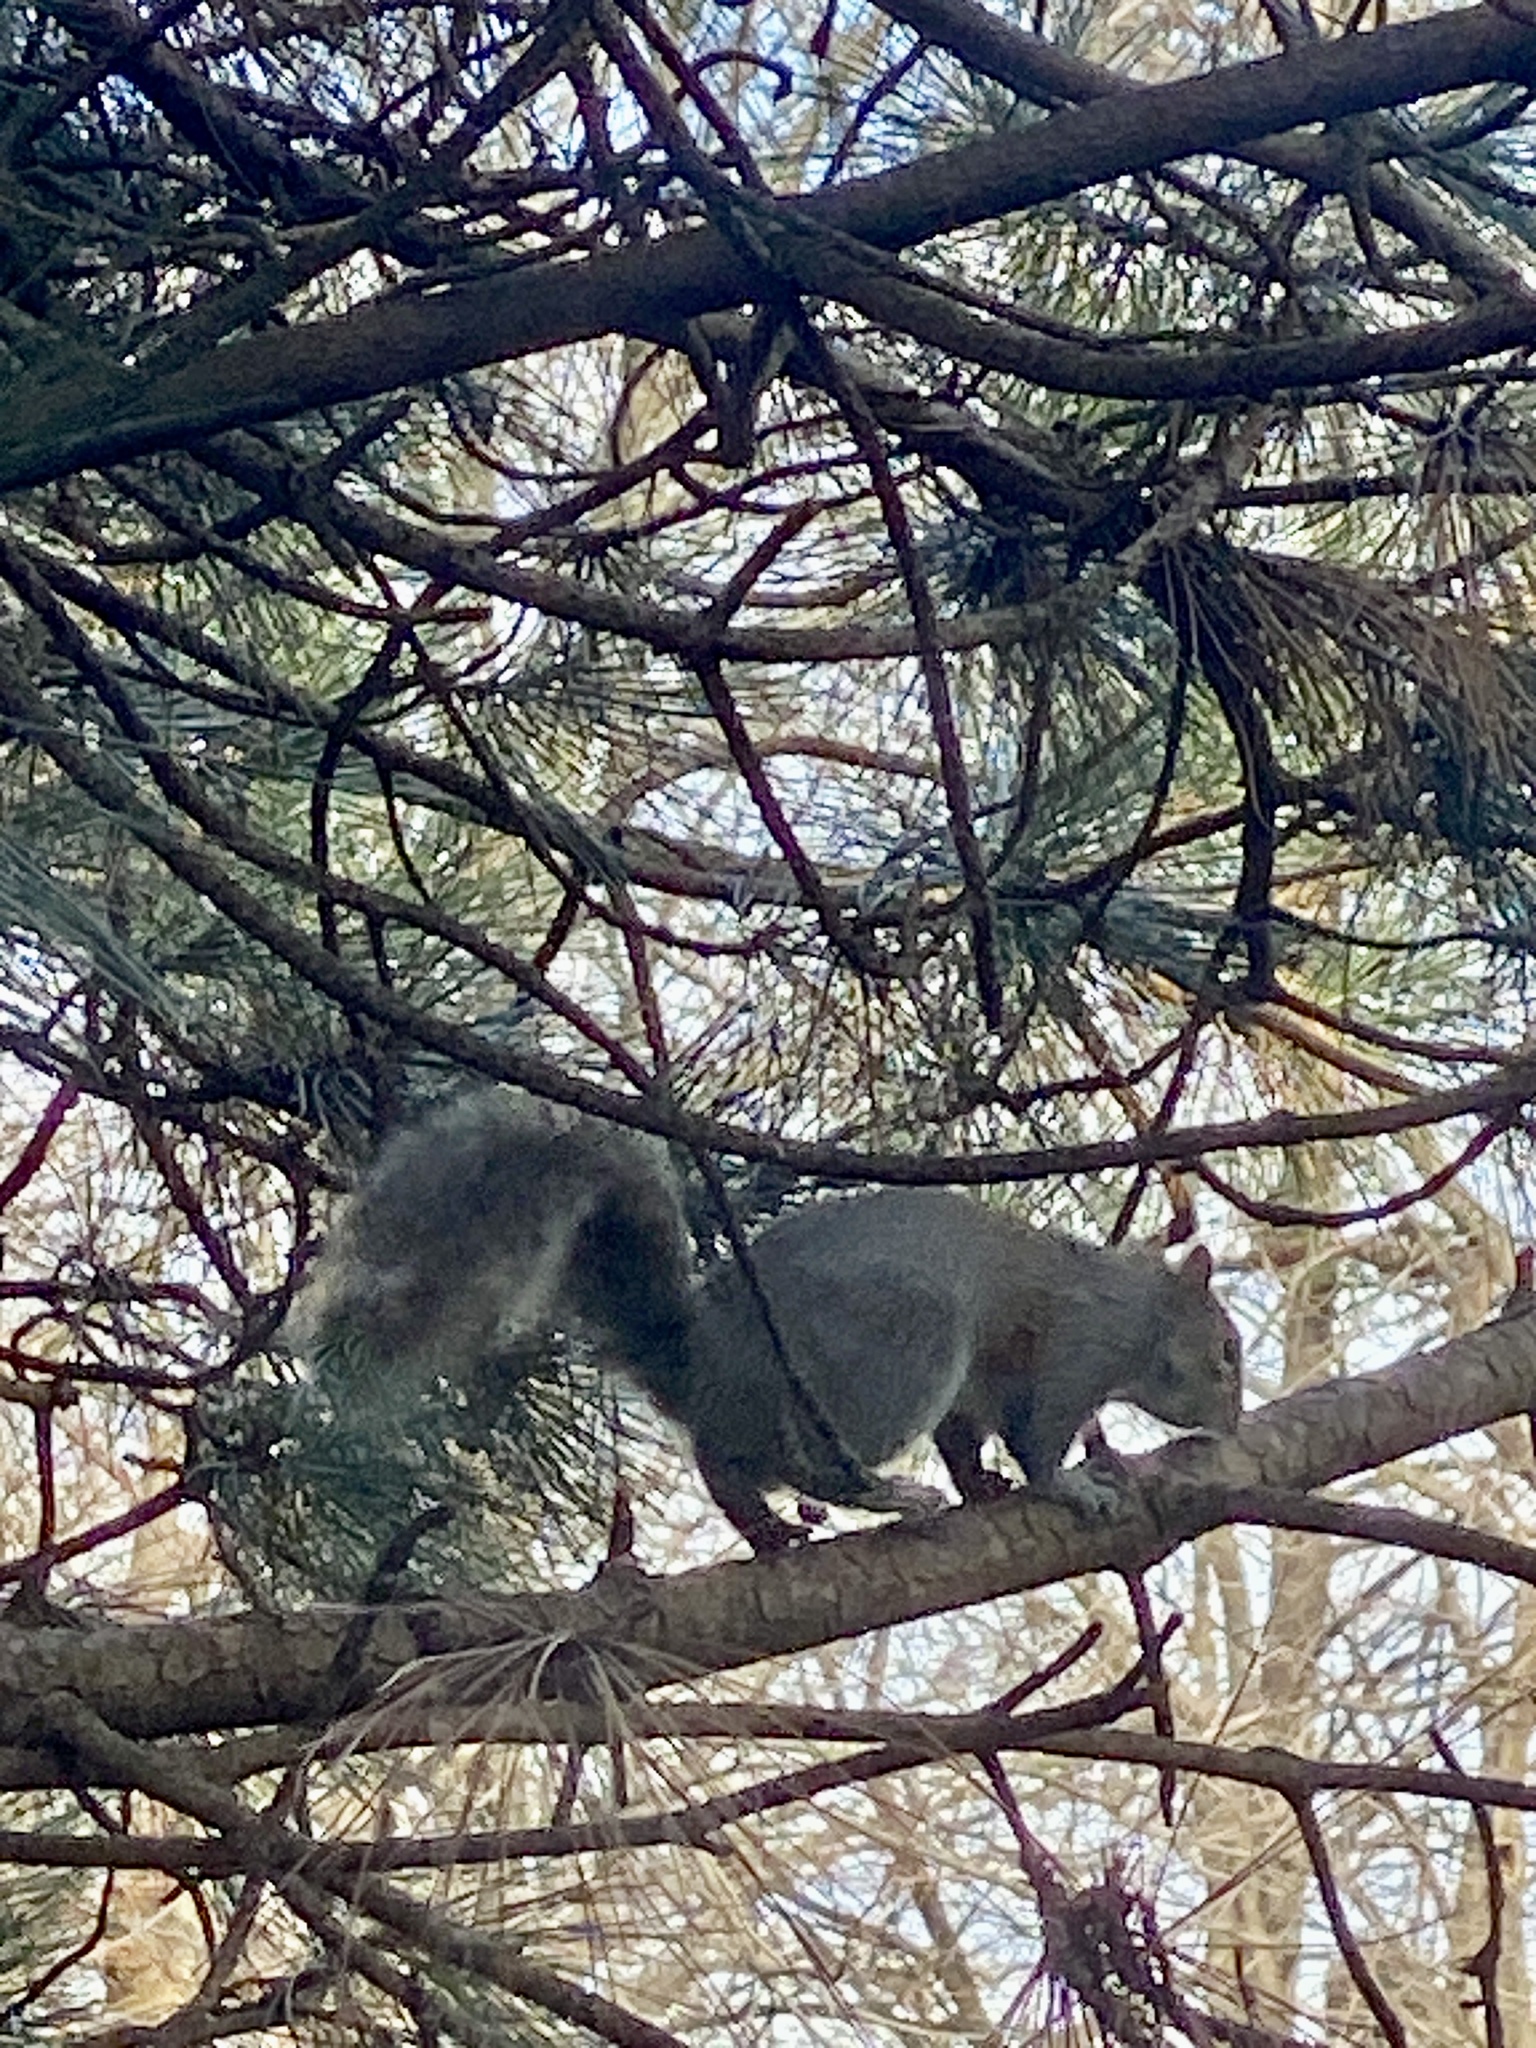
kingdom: Animalia
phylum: Chordata
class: Mammalia
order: Rodentia
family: Sciuridae
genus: Sciurus
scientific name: Sciurus carolinensis
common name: Eastern gray squirrel
